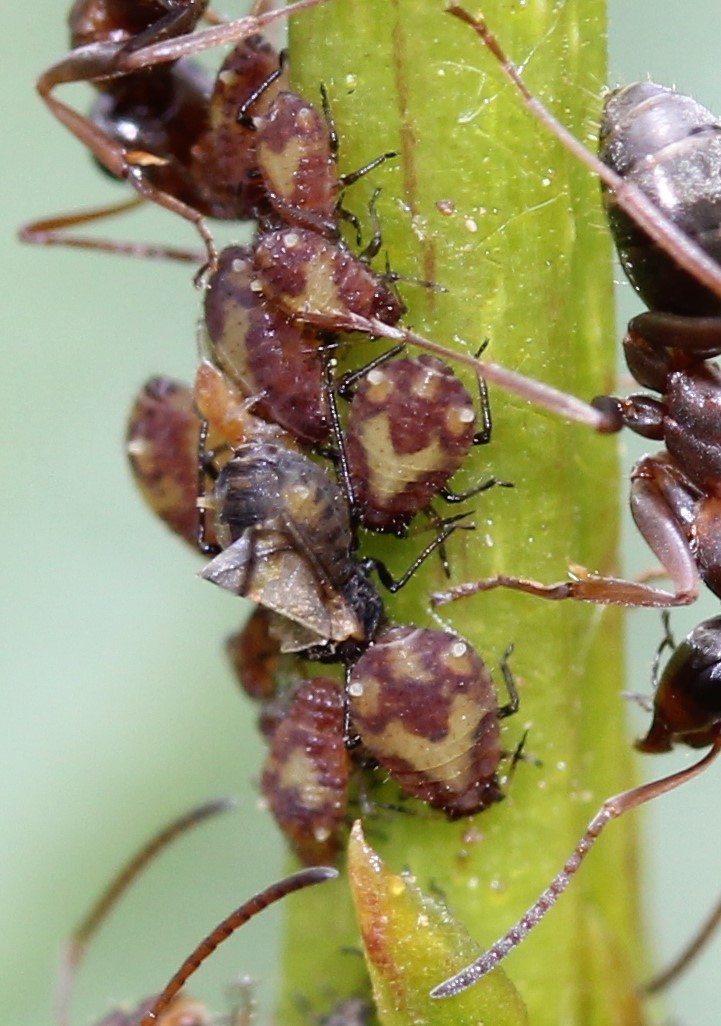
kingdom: Animalia
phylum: Arthropoda
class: Insecta
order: Hemiptera
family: Aphididae
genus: Chaitophorus
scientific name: Chaitophorus
